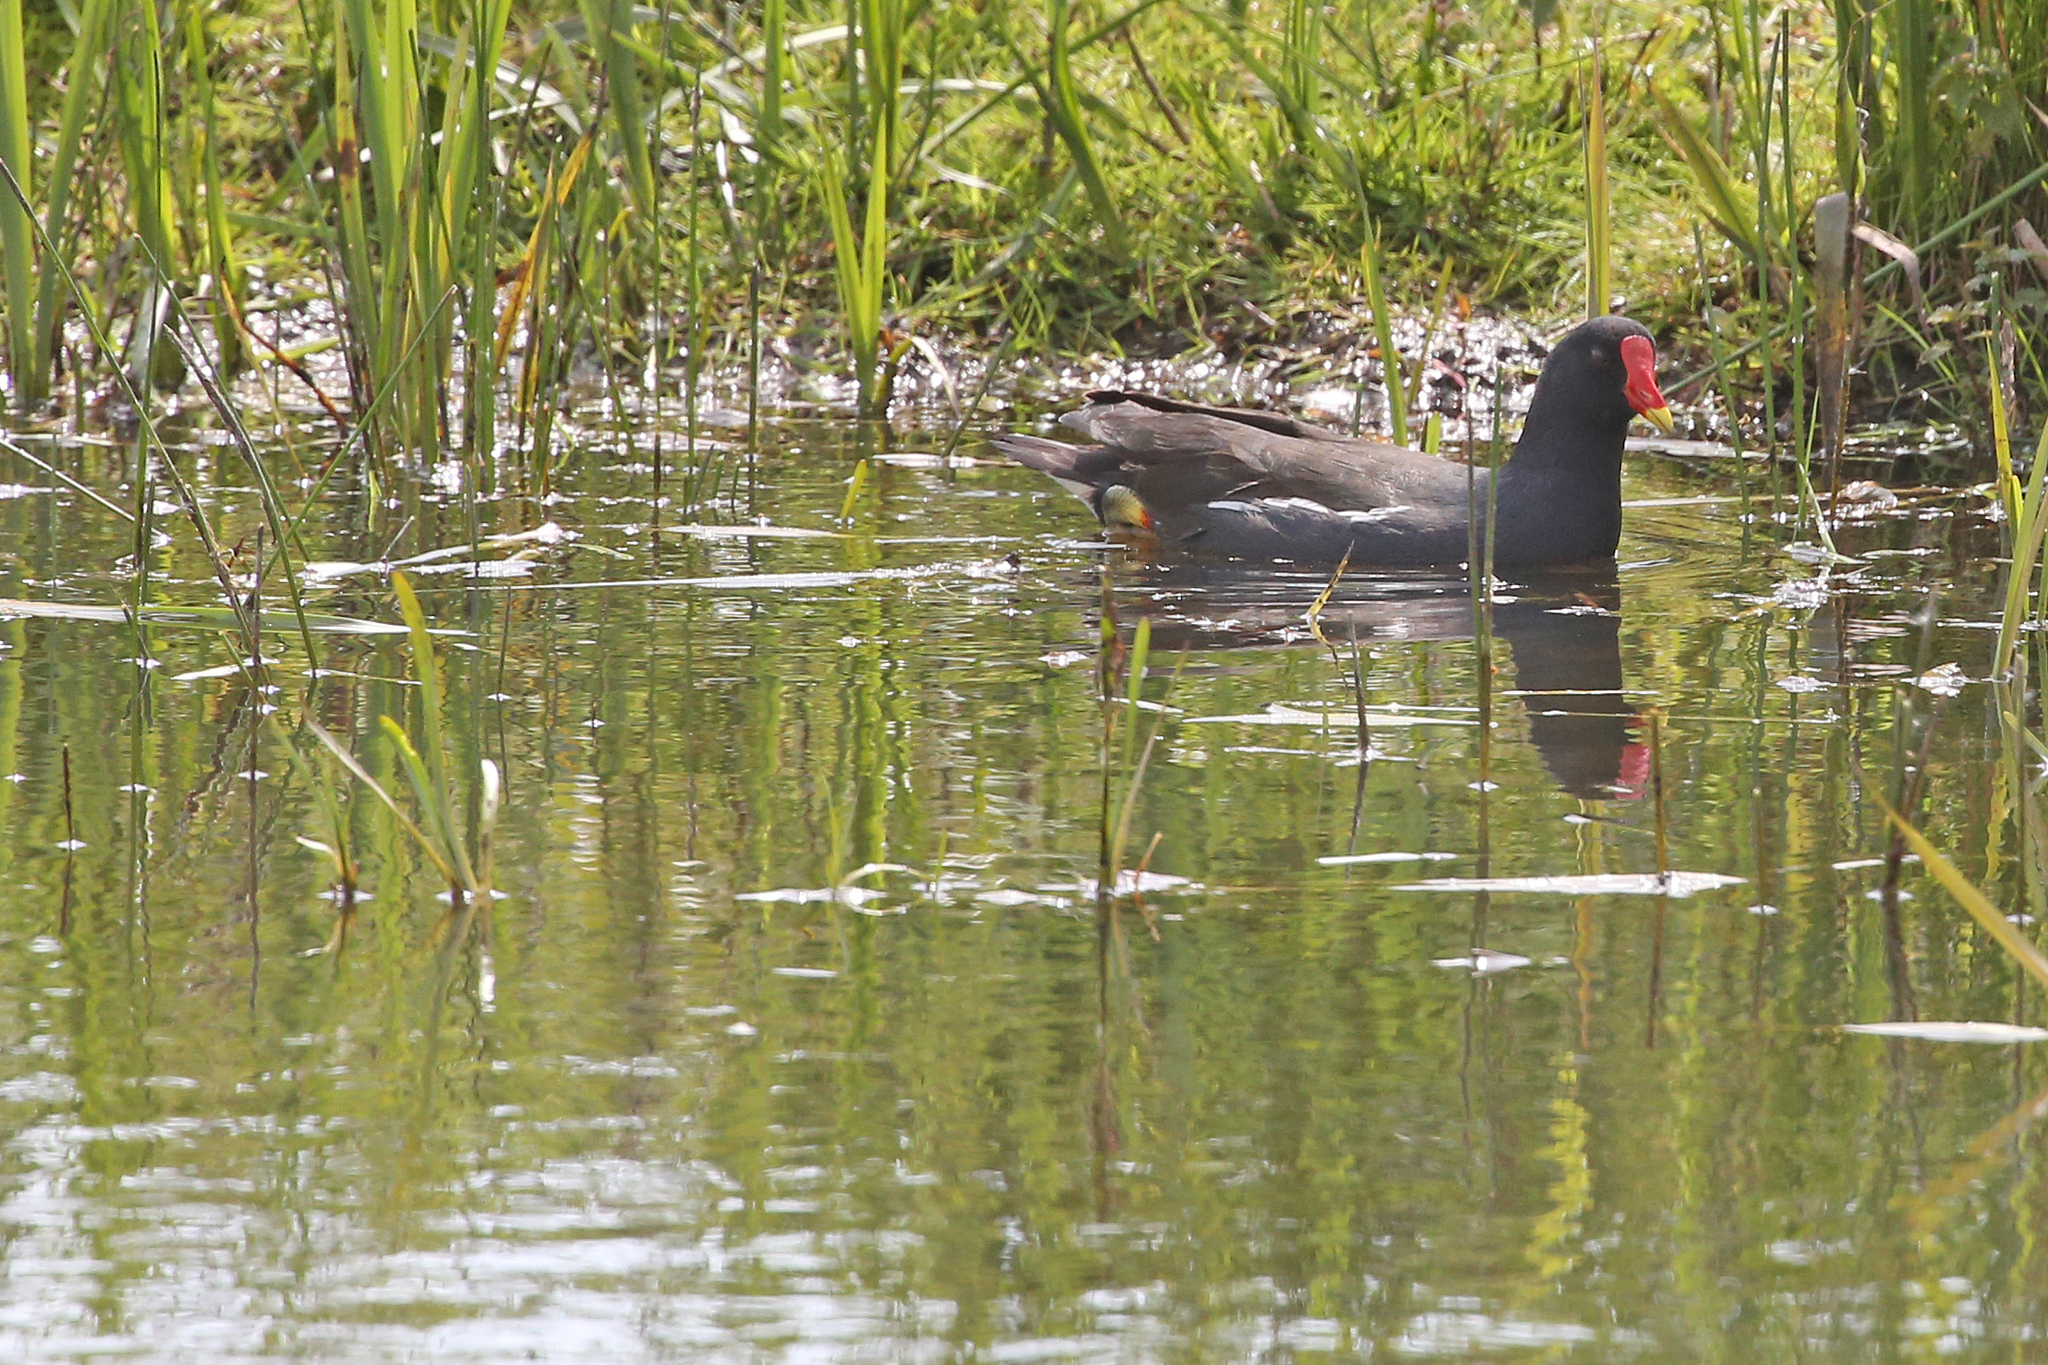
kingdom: Animalia
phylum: Chordata
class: Aves
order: Gruiformes
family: Rallidae
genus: Gallinula
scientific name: Gallinula chloropus
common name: Common moorhen
